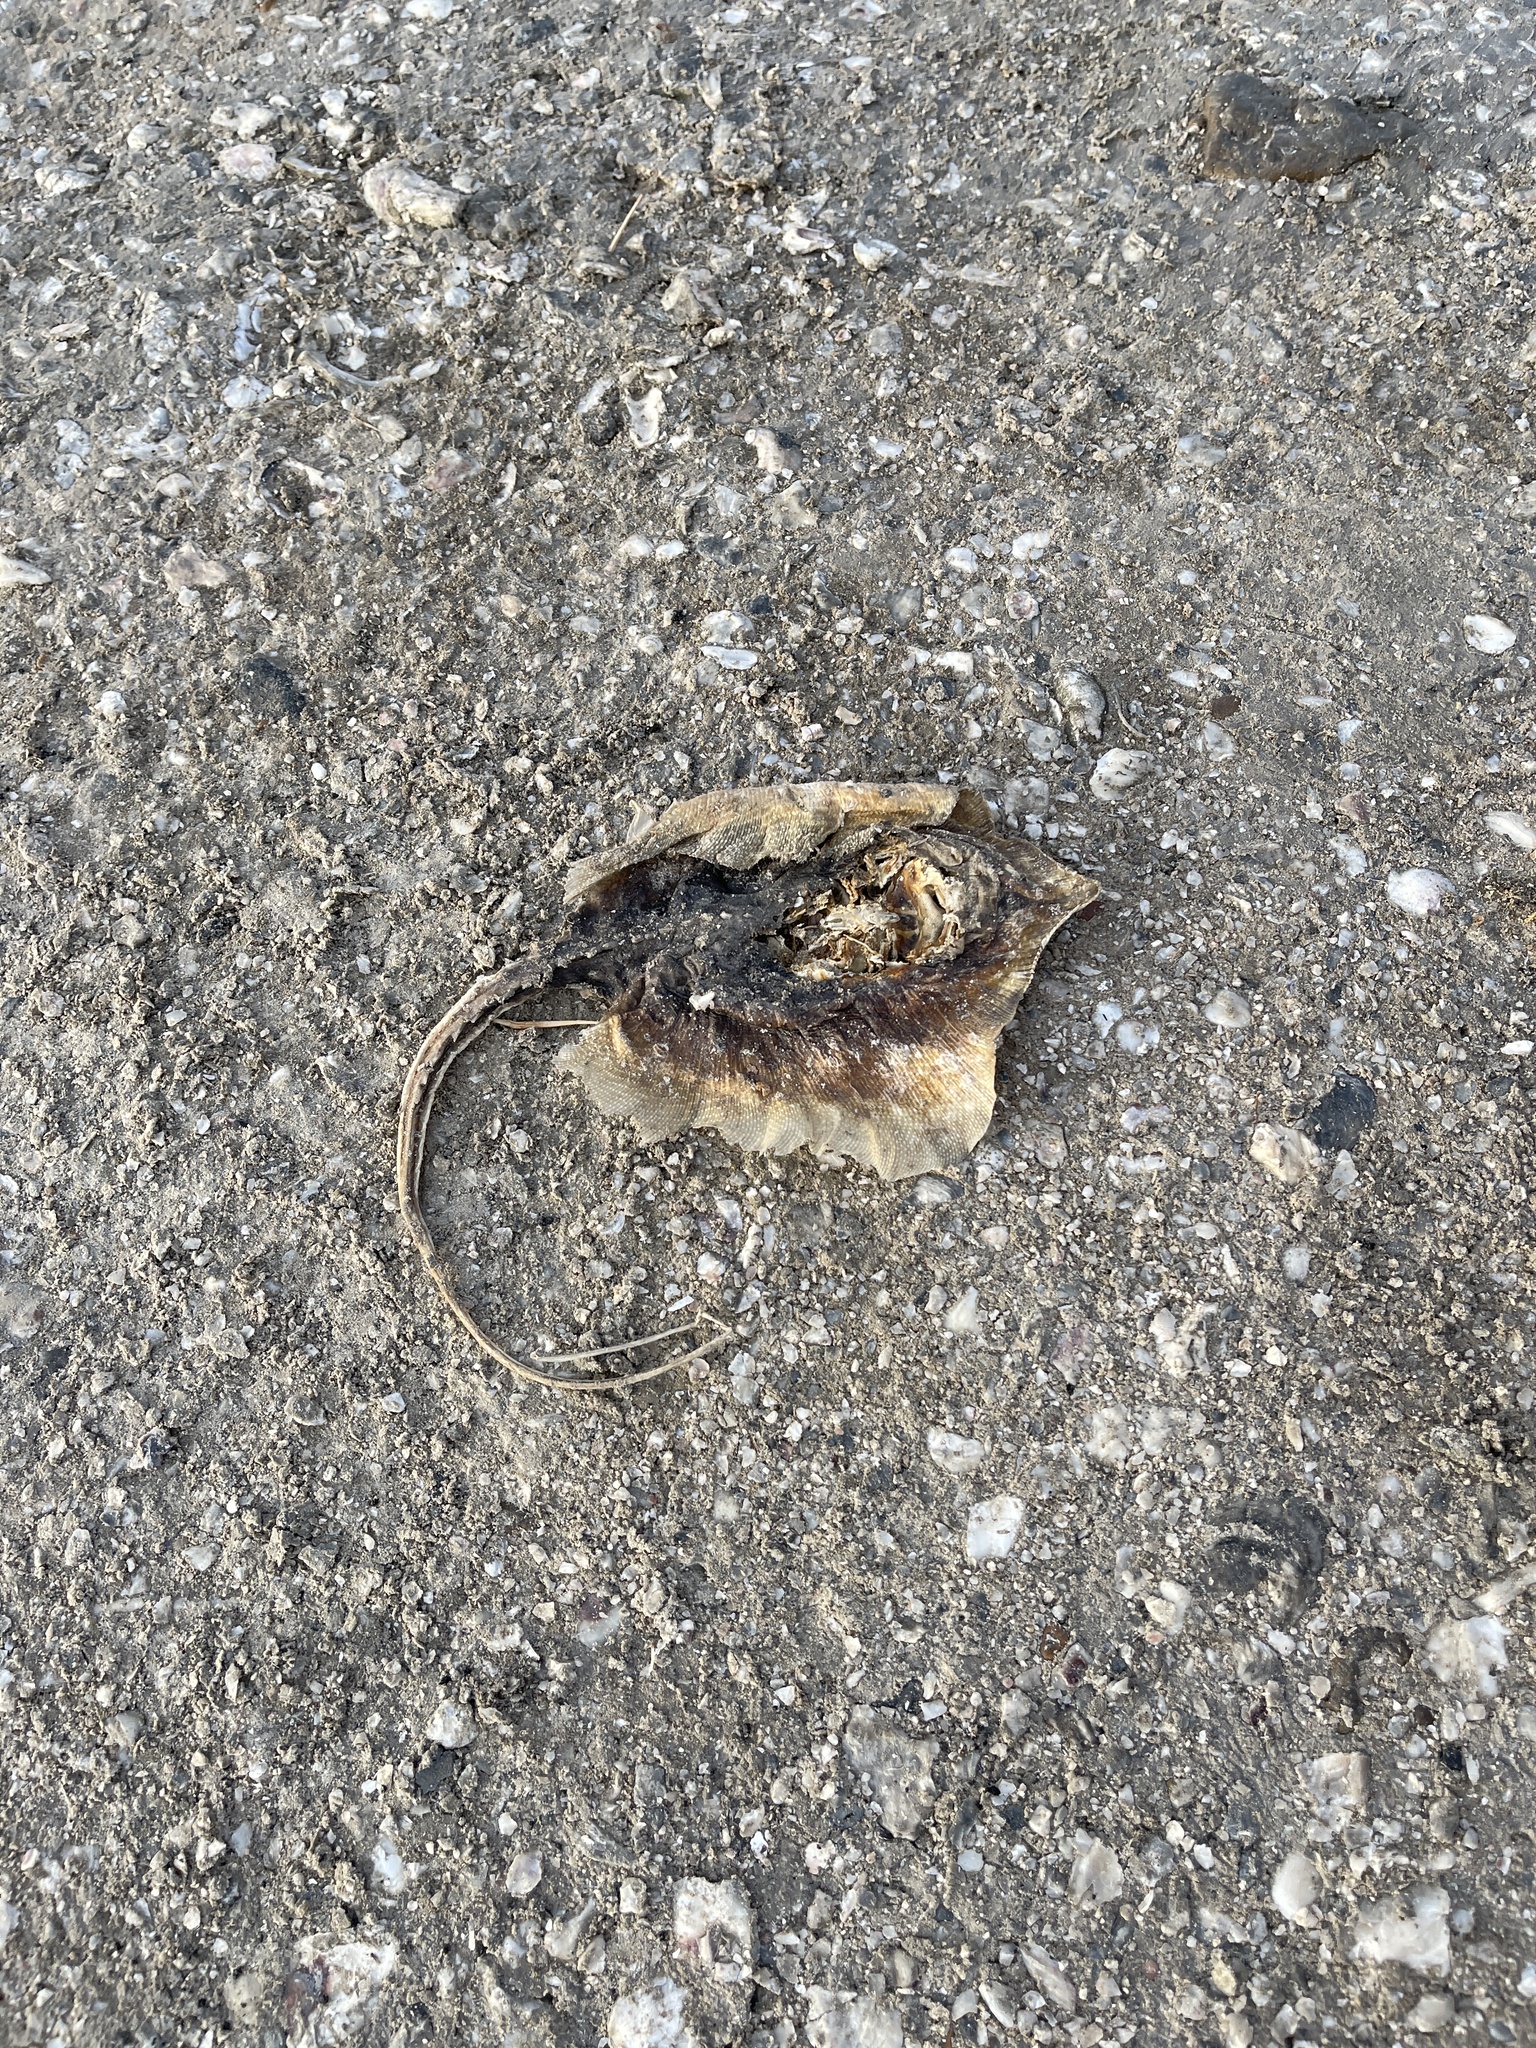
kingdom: Animalia
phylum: Chordata
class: Elasmobranchii
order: Myliobatiformes
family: Dasyatidae
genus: Hypanus
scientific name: Hypanus sabinus
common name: Atlantic stingray
